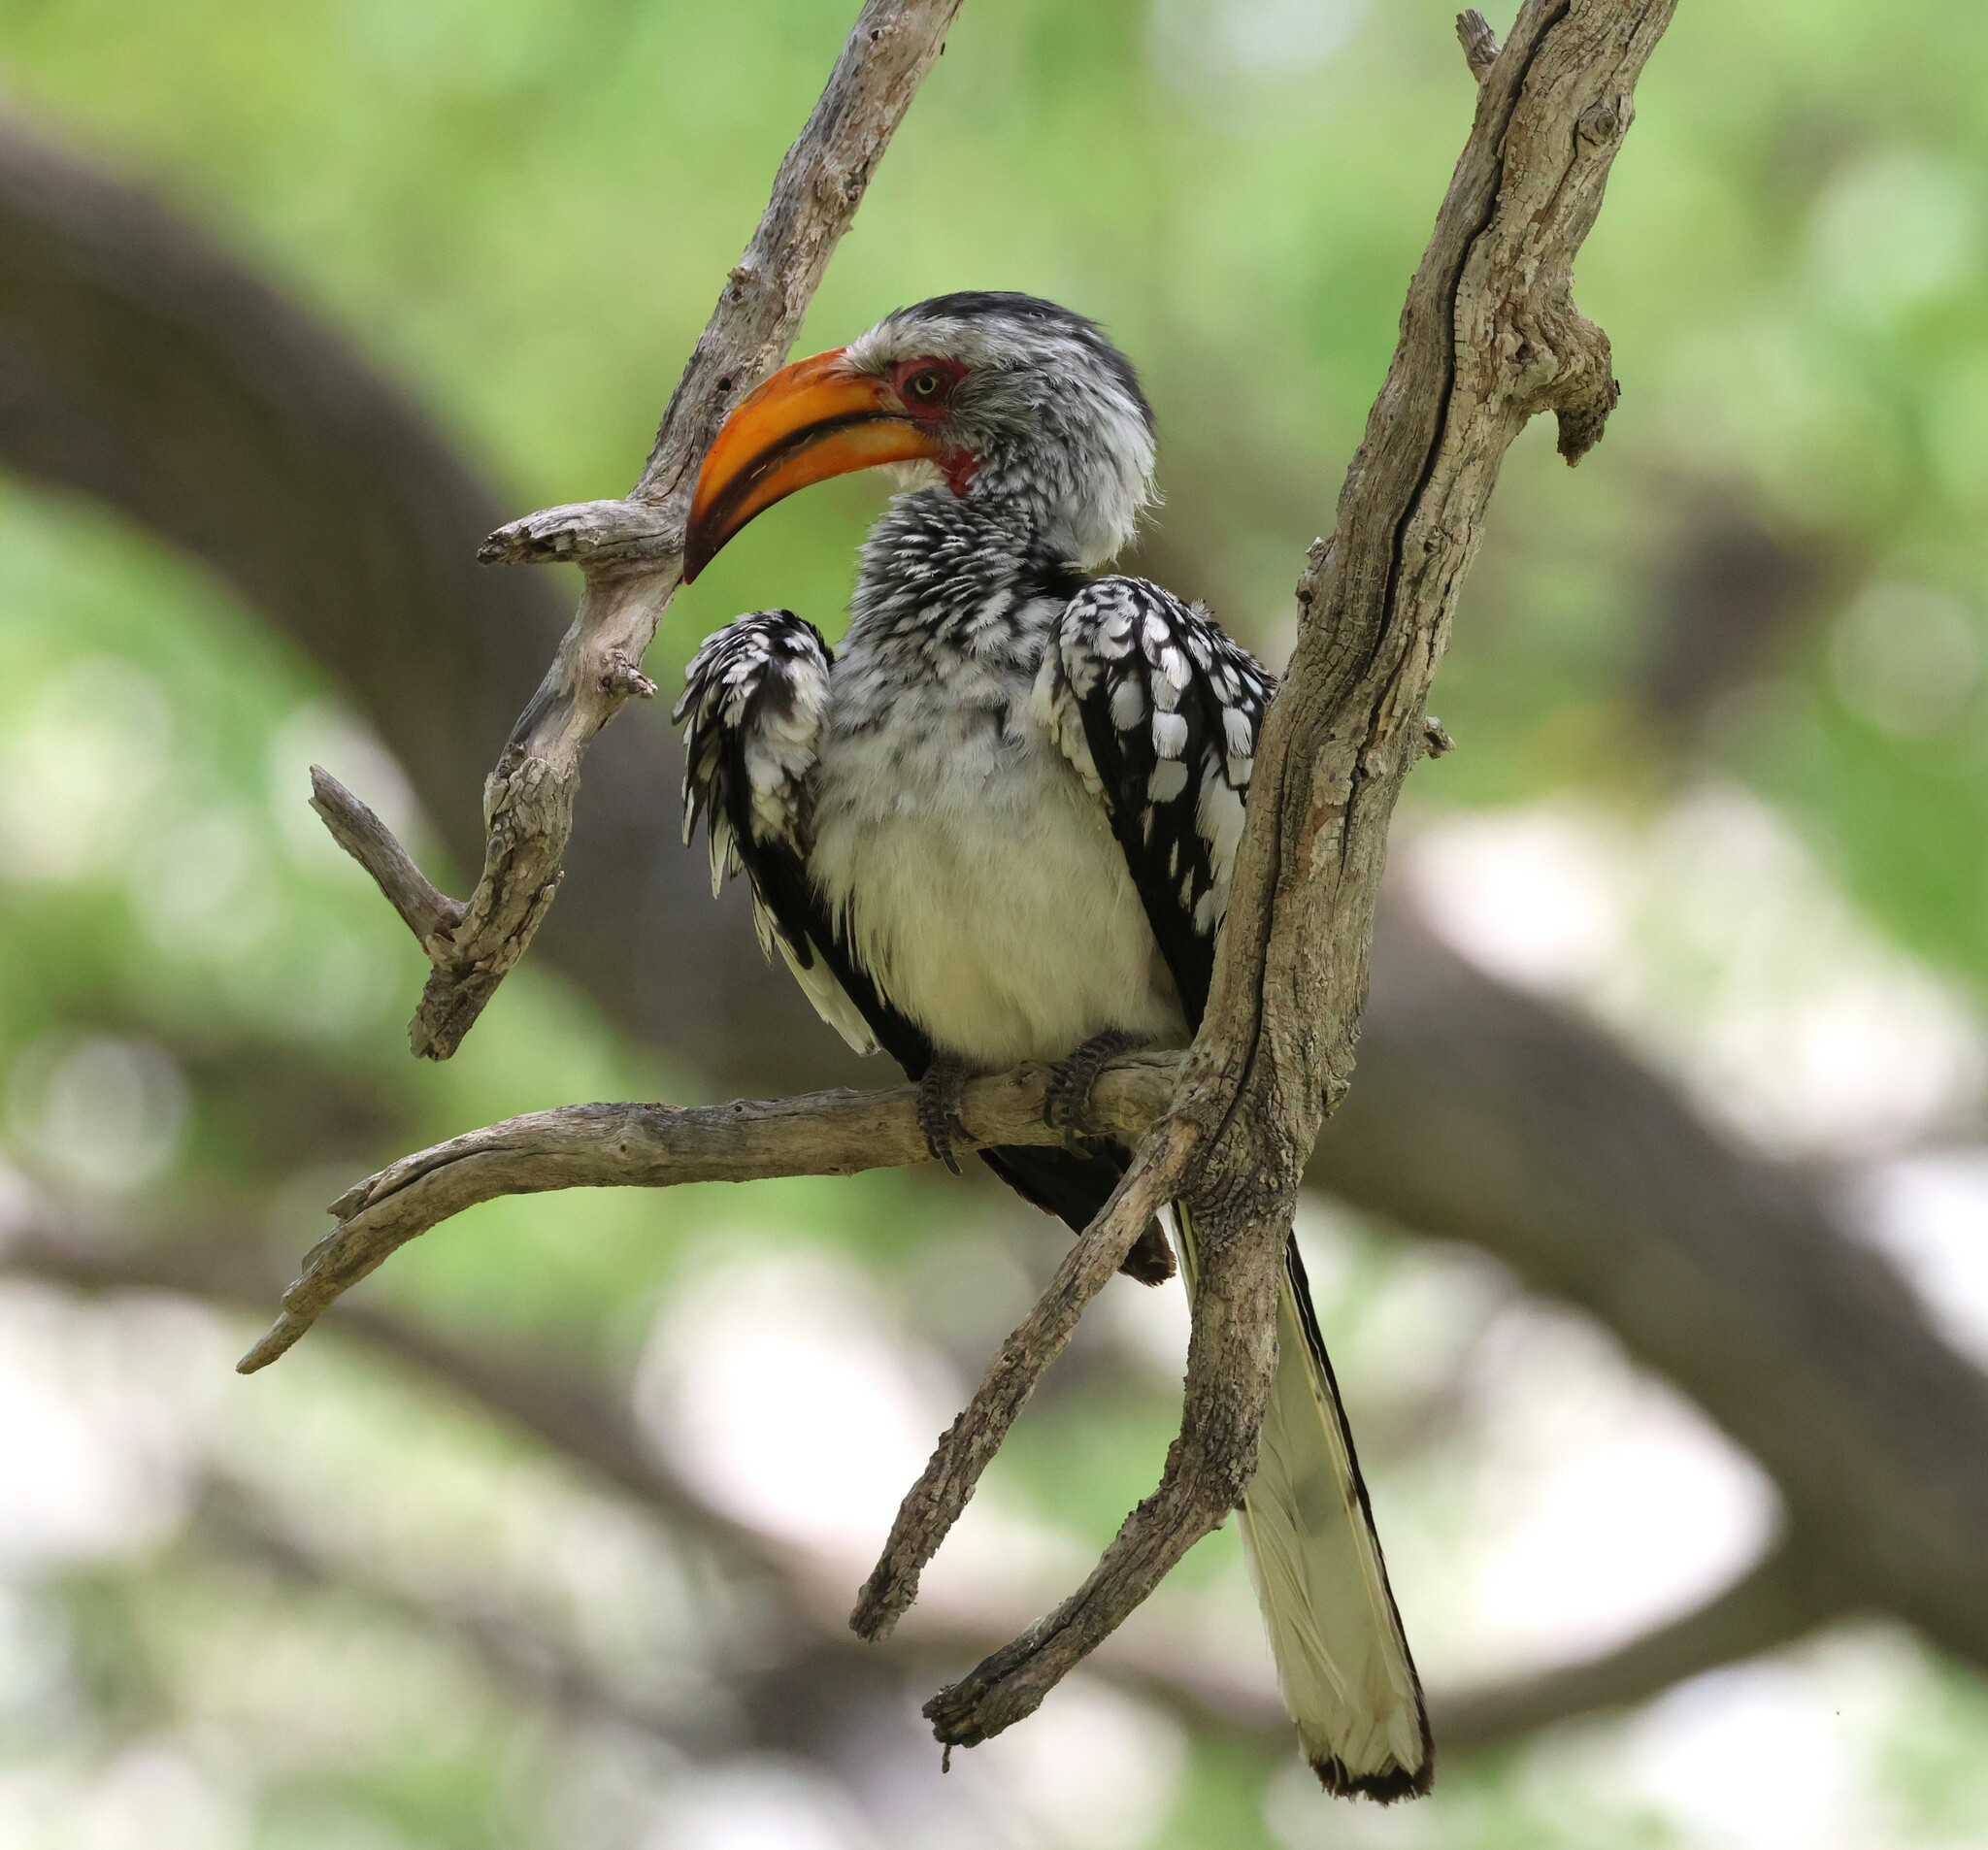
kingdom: Animalia
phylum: Chordata
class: Aves
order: Bucerotiformes
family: Bucerotidae
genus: Tockus
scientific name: Tockus leucomelas
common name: Southern yellow-billed hornbill
